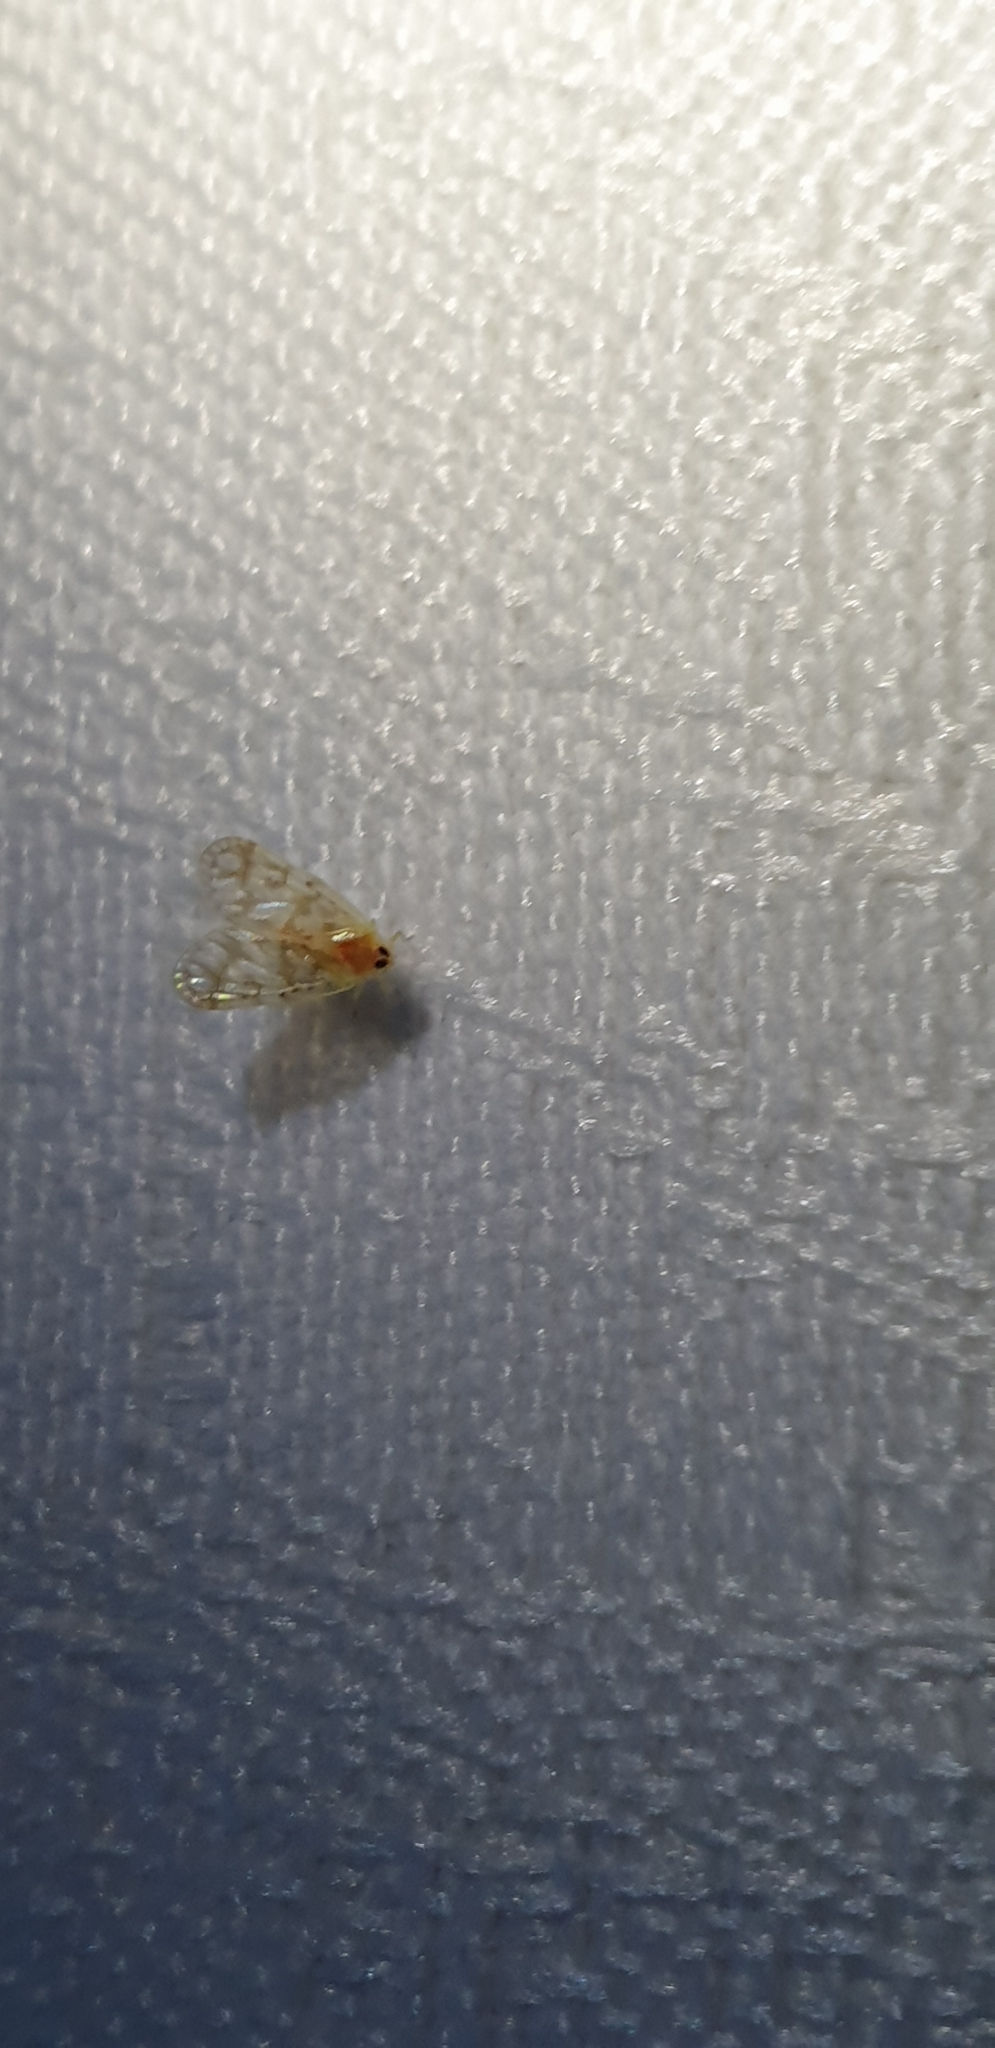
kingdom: Animalia
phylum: Arthropoda
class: Insecta
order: Hemiptera
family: Derbidae
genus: Saccharodite
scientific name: Saccharodite chrysonoe
